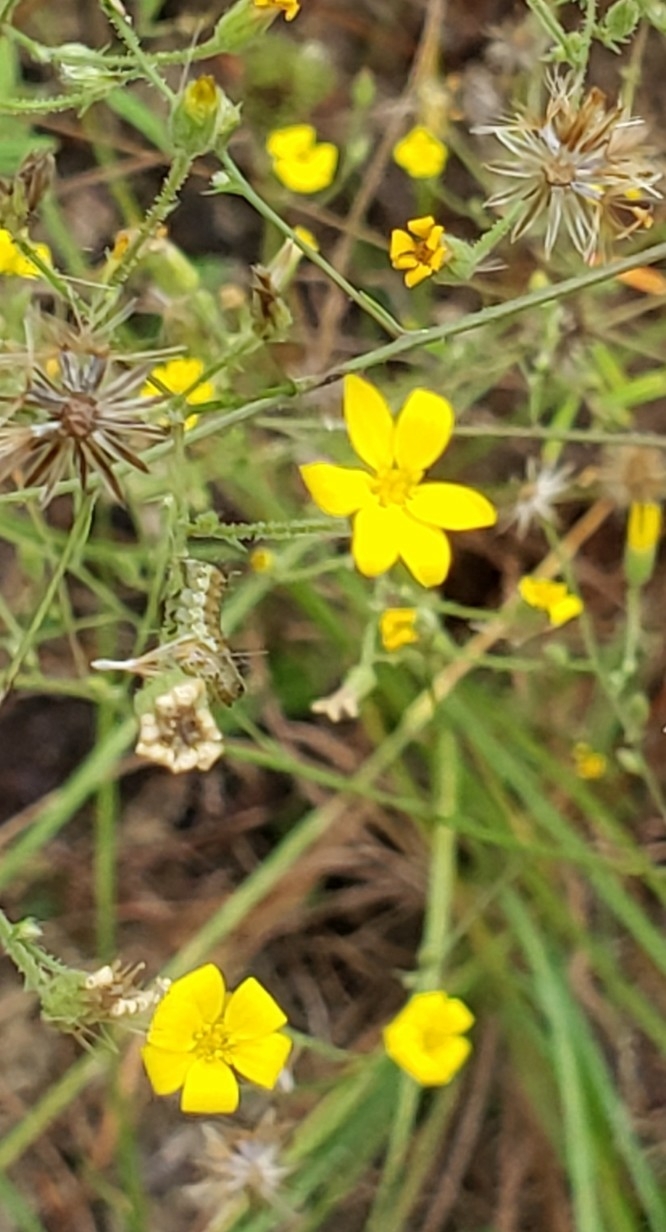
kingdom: Plantae
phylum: Tracheophyta
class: Magnoliopsida
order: Asterales
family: Asteraceae
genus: Croptilon
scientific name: Croptilon divaricatum
